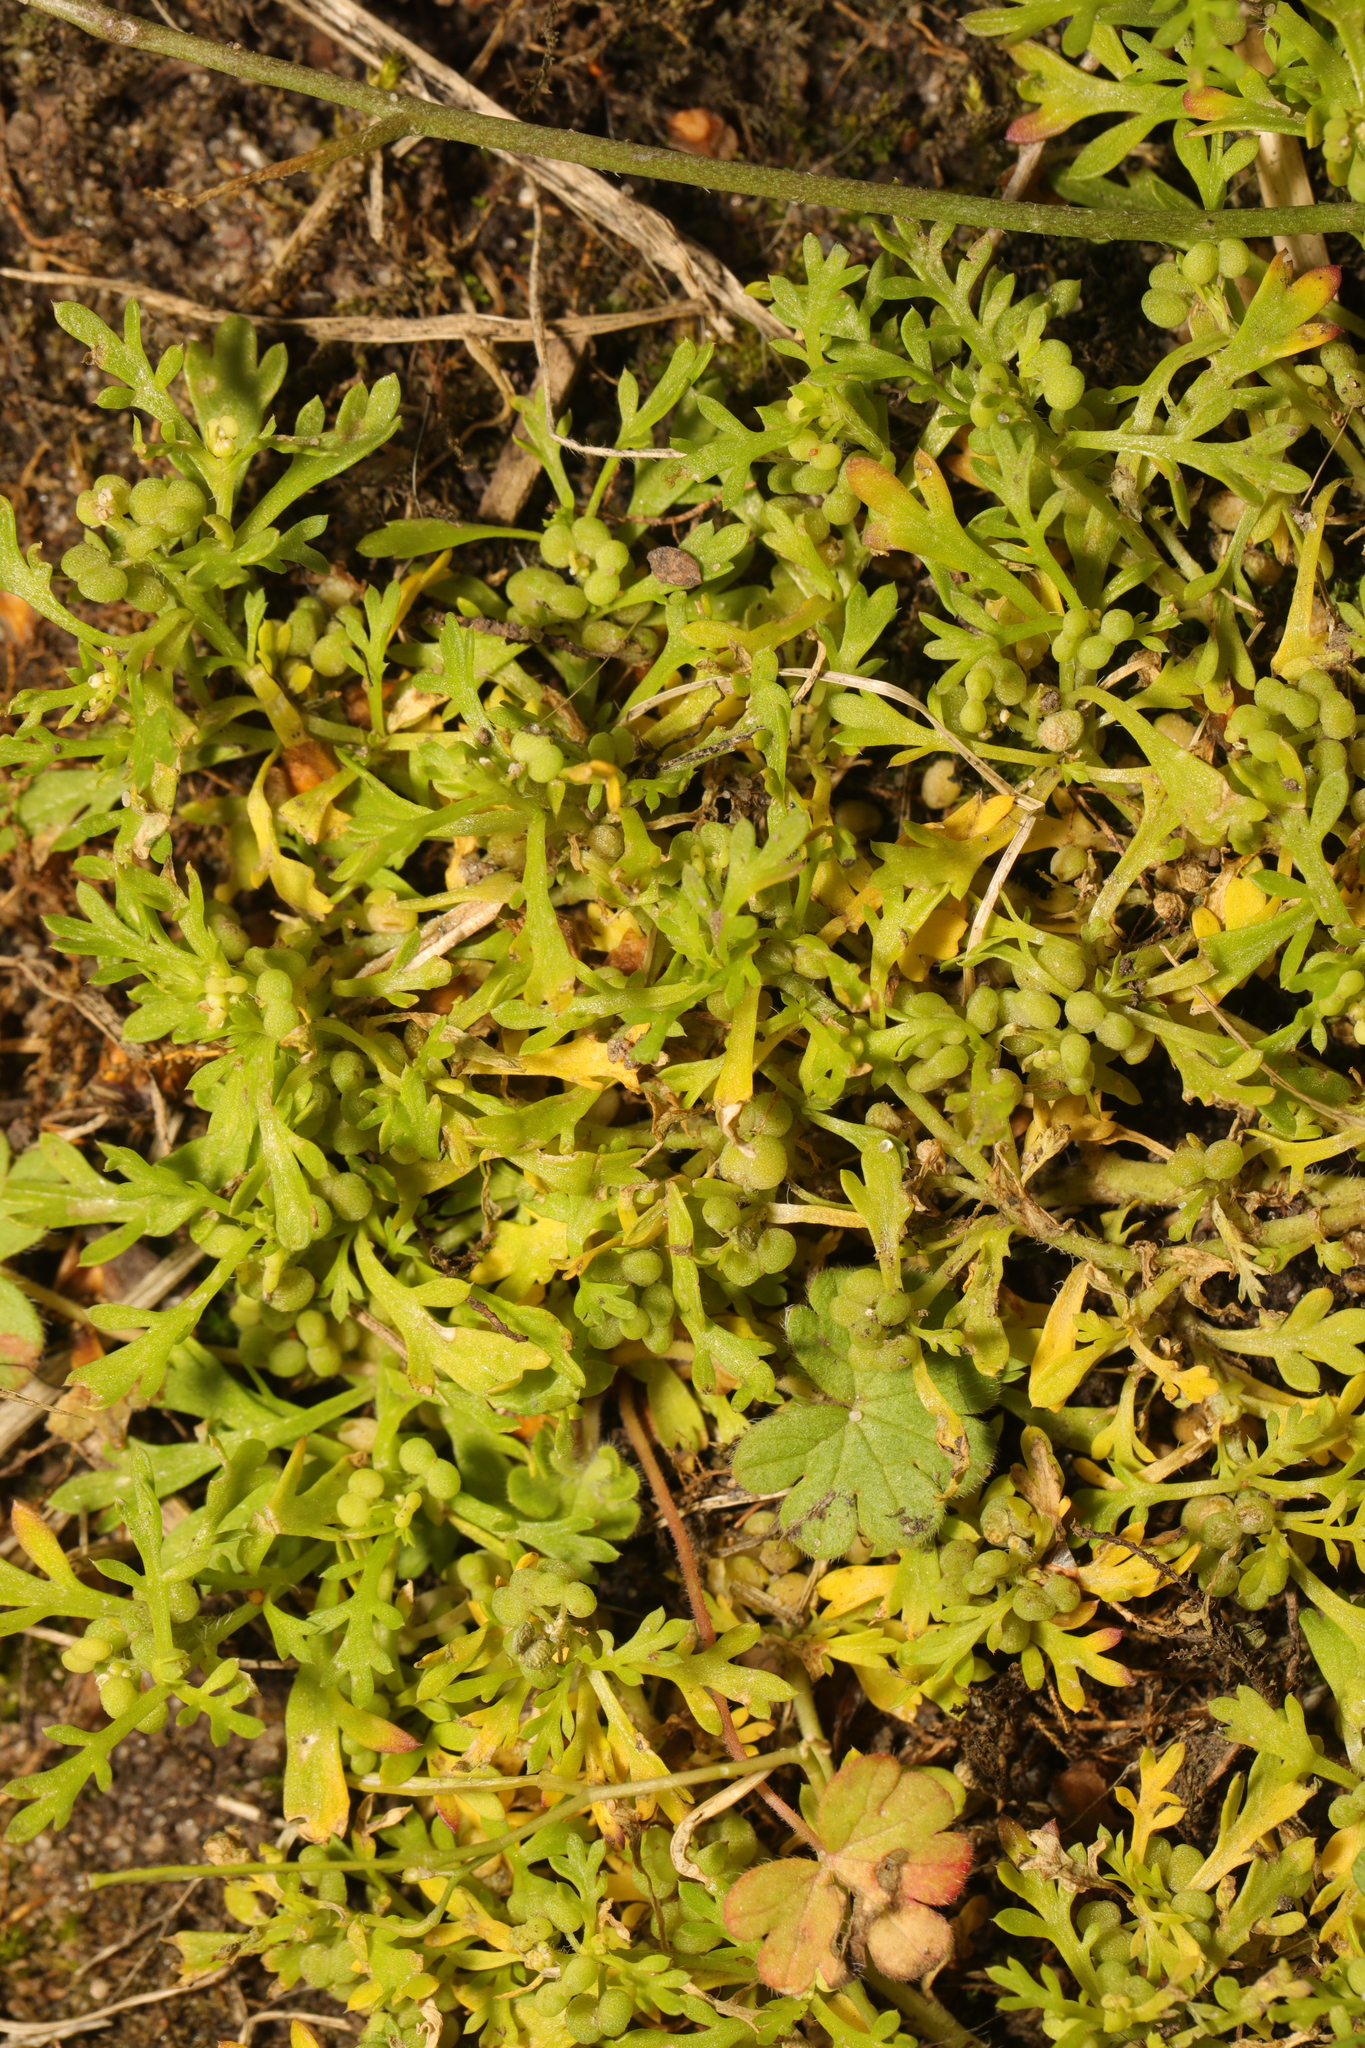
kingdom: Plantae
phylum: Tracheophyta
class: Magnoliopsida
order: Brassicales
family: Brassicaceae
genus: Lepidium
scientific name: Lepidium didymum
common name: Lesser swinecress
